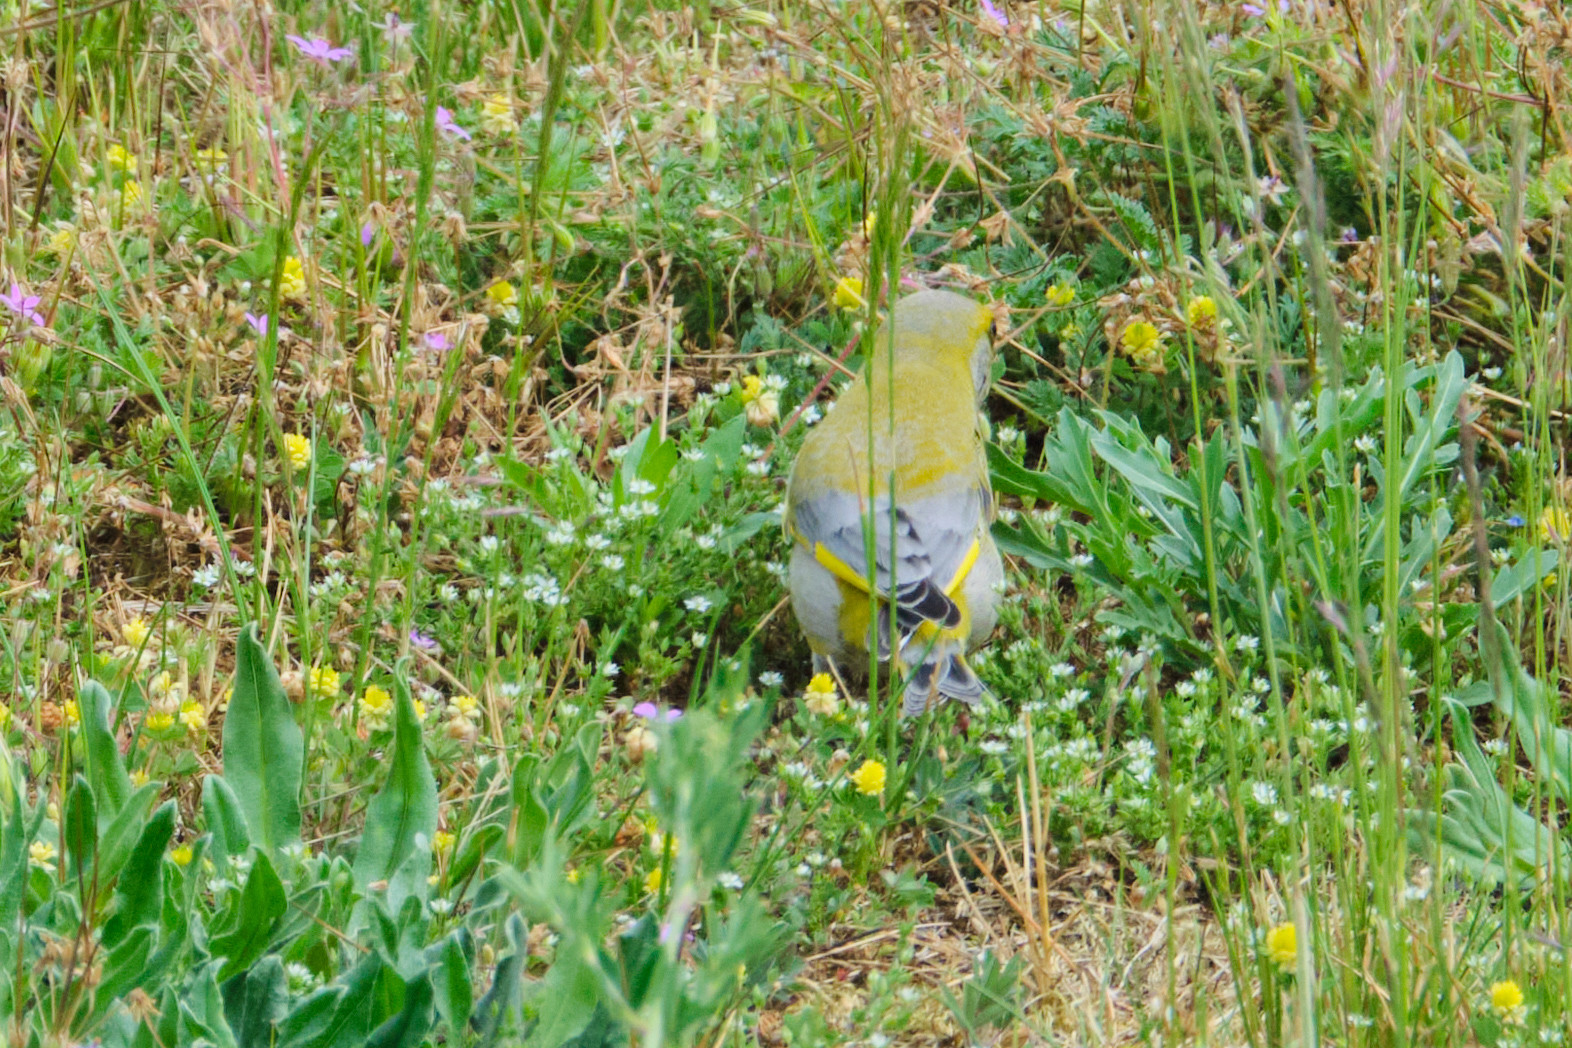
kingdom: Plantae
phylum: Tracheophyta
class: Liliopsida
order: Poales
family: Poaceae
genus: Chloris
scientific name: Chloris chloris
